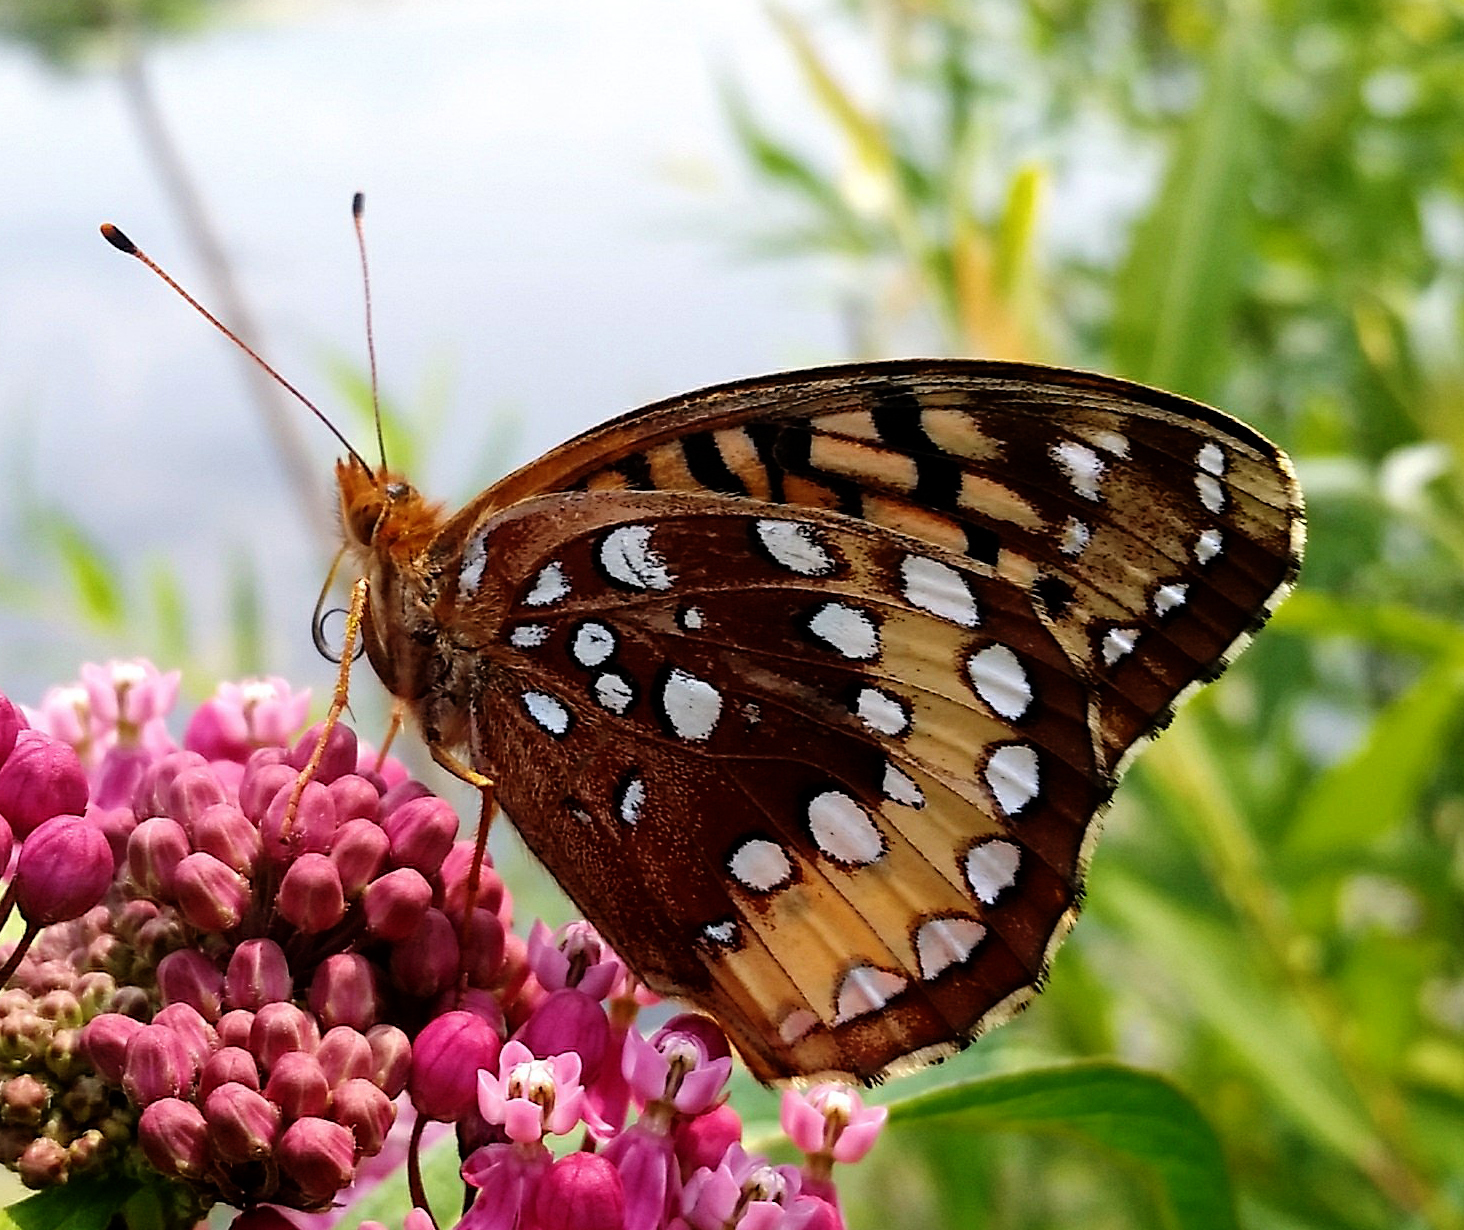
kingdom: Animalia
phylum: Arthropoda
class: Insecta
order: Lepidoptera
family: Nymphalidae
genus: Speyeria
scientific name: Speyeria cybele
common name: Great spangled fritillary
